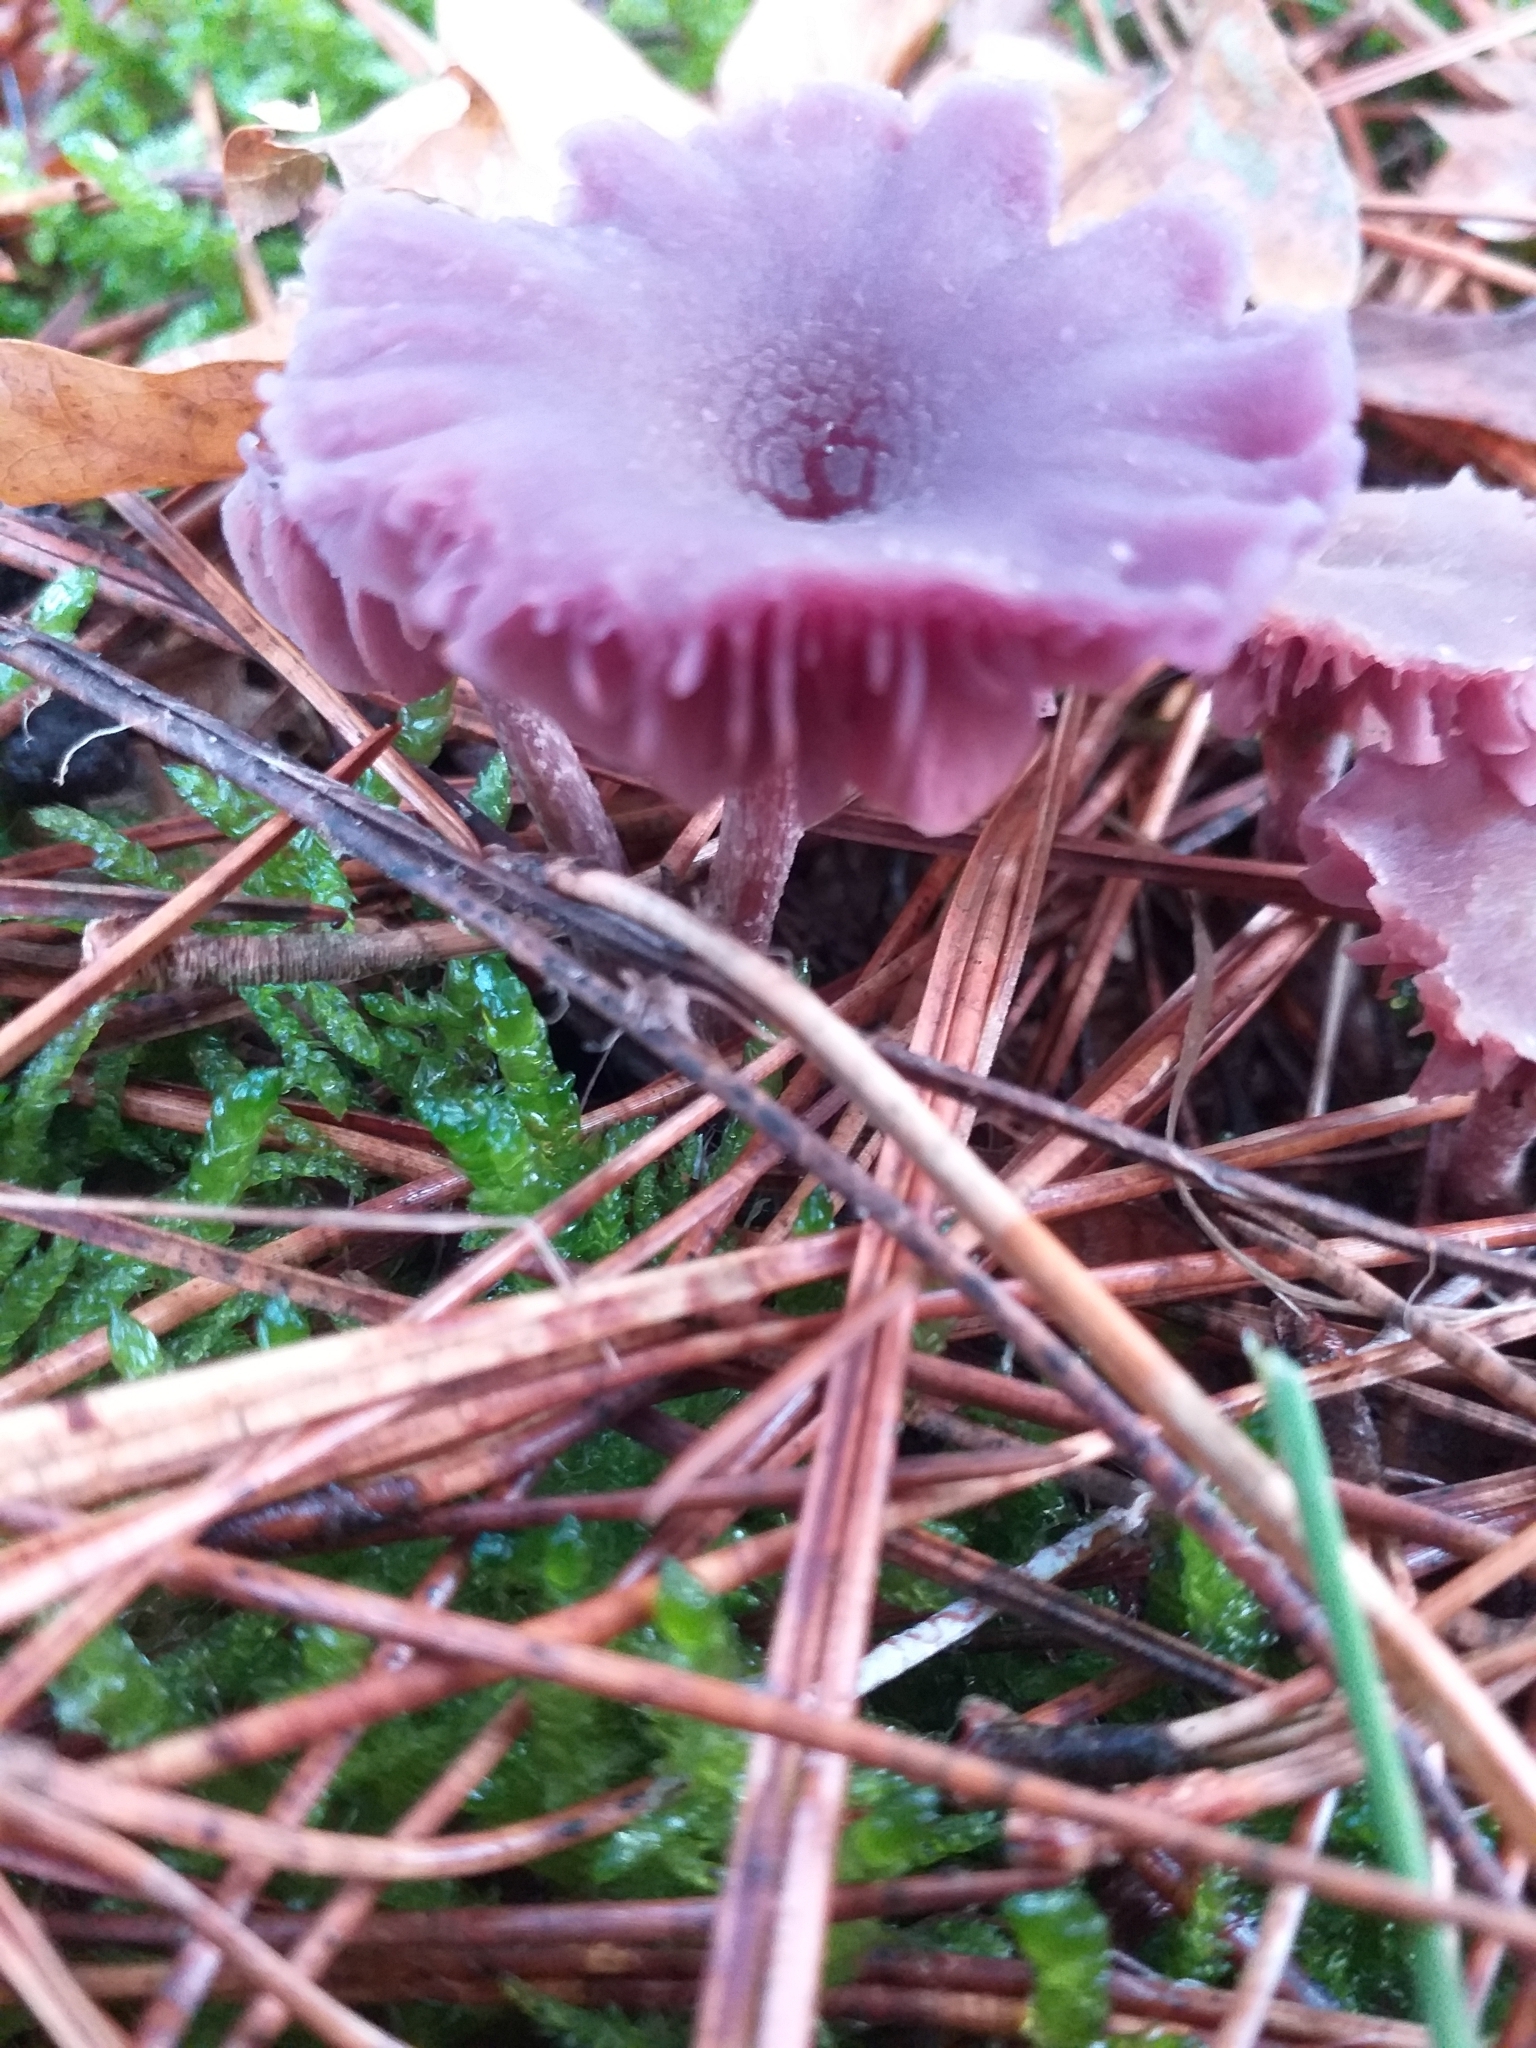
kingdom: Fungi
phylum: Basidiomycota
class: Agaricomycetes
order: Agaricales
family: Hydnangiaceae
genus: Laccaria
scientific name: Laccaria amethystina
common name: Amethyst deceiver
